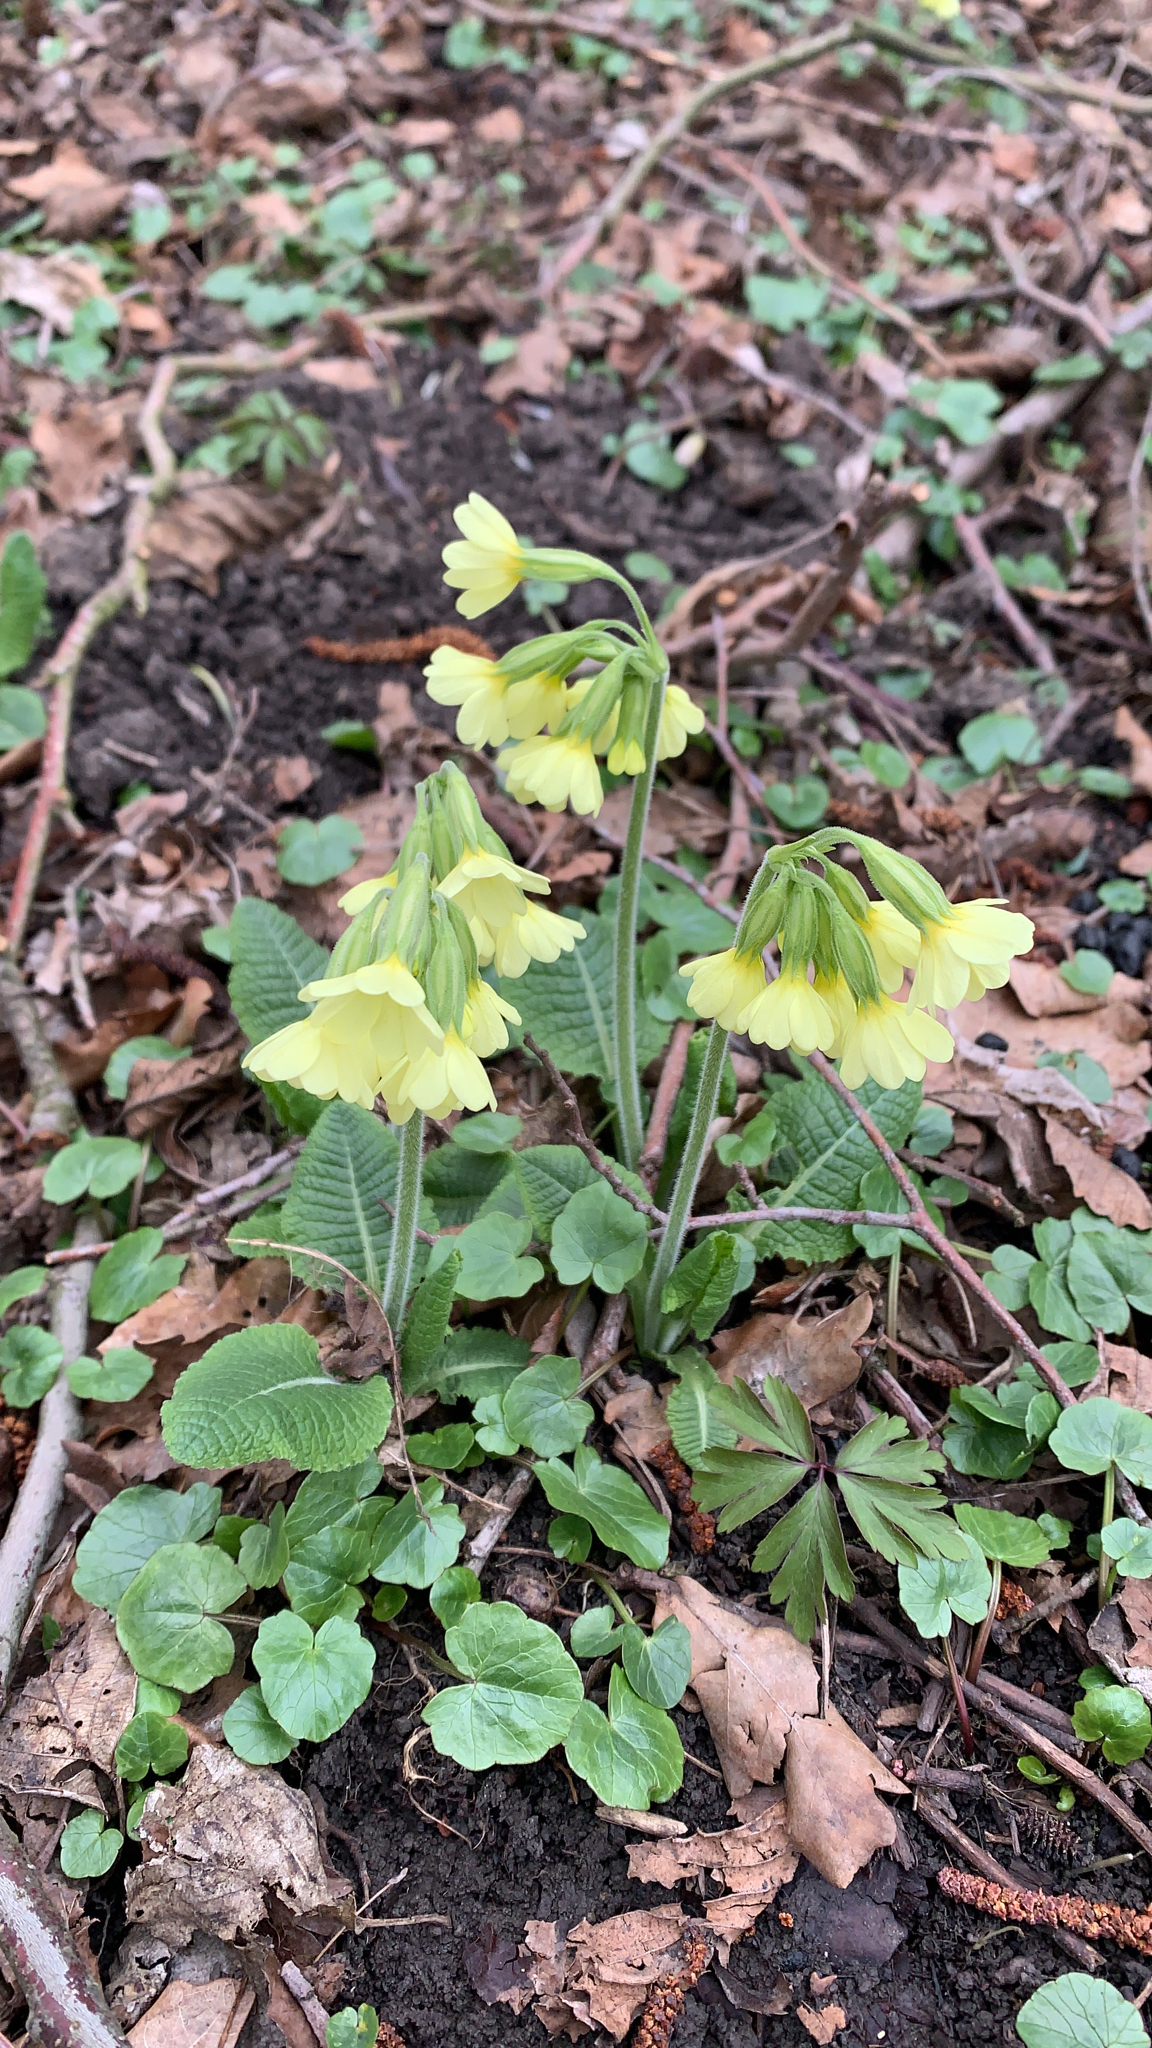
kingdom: Plantae
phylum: Tracheophyta
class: Magnoliopsida
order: Ericales
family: Primulaceae
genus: Primula
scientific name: Primula elatior
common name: Oxlip
